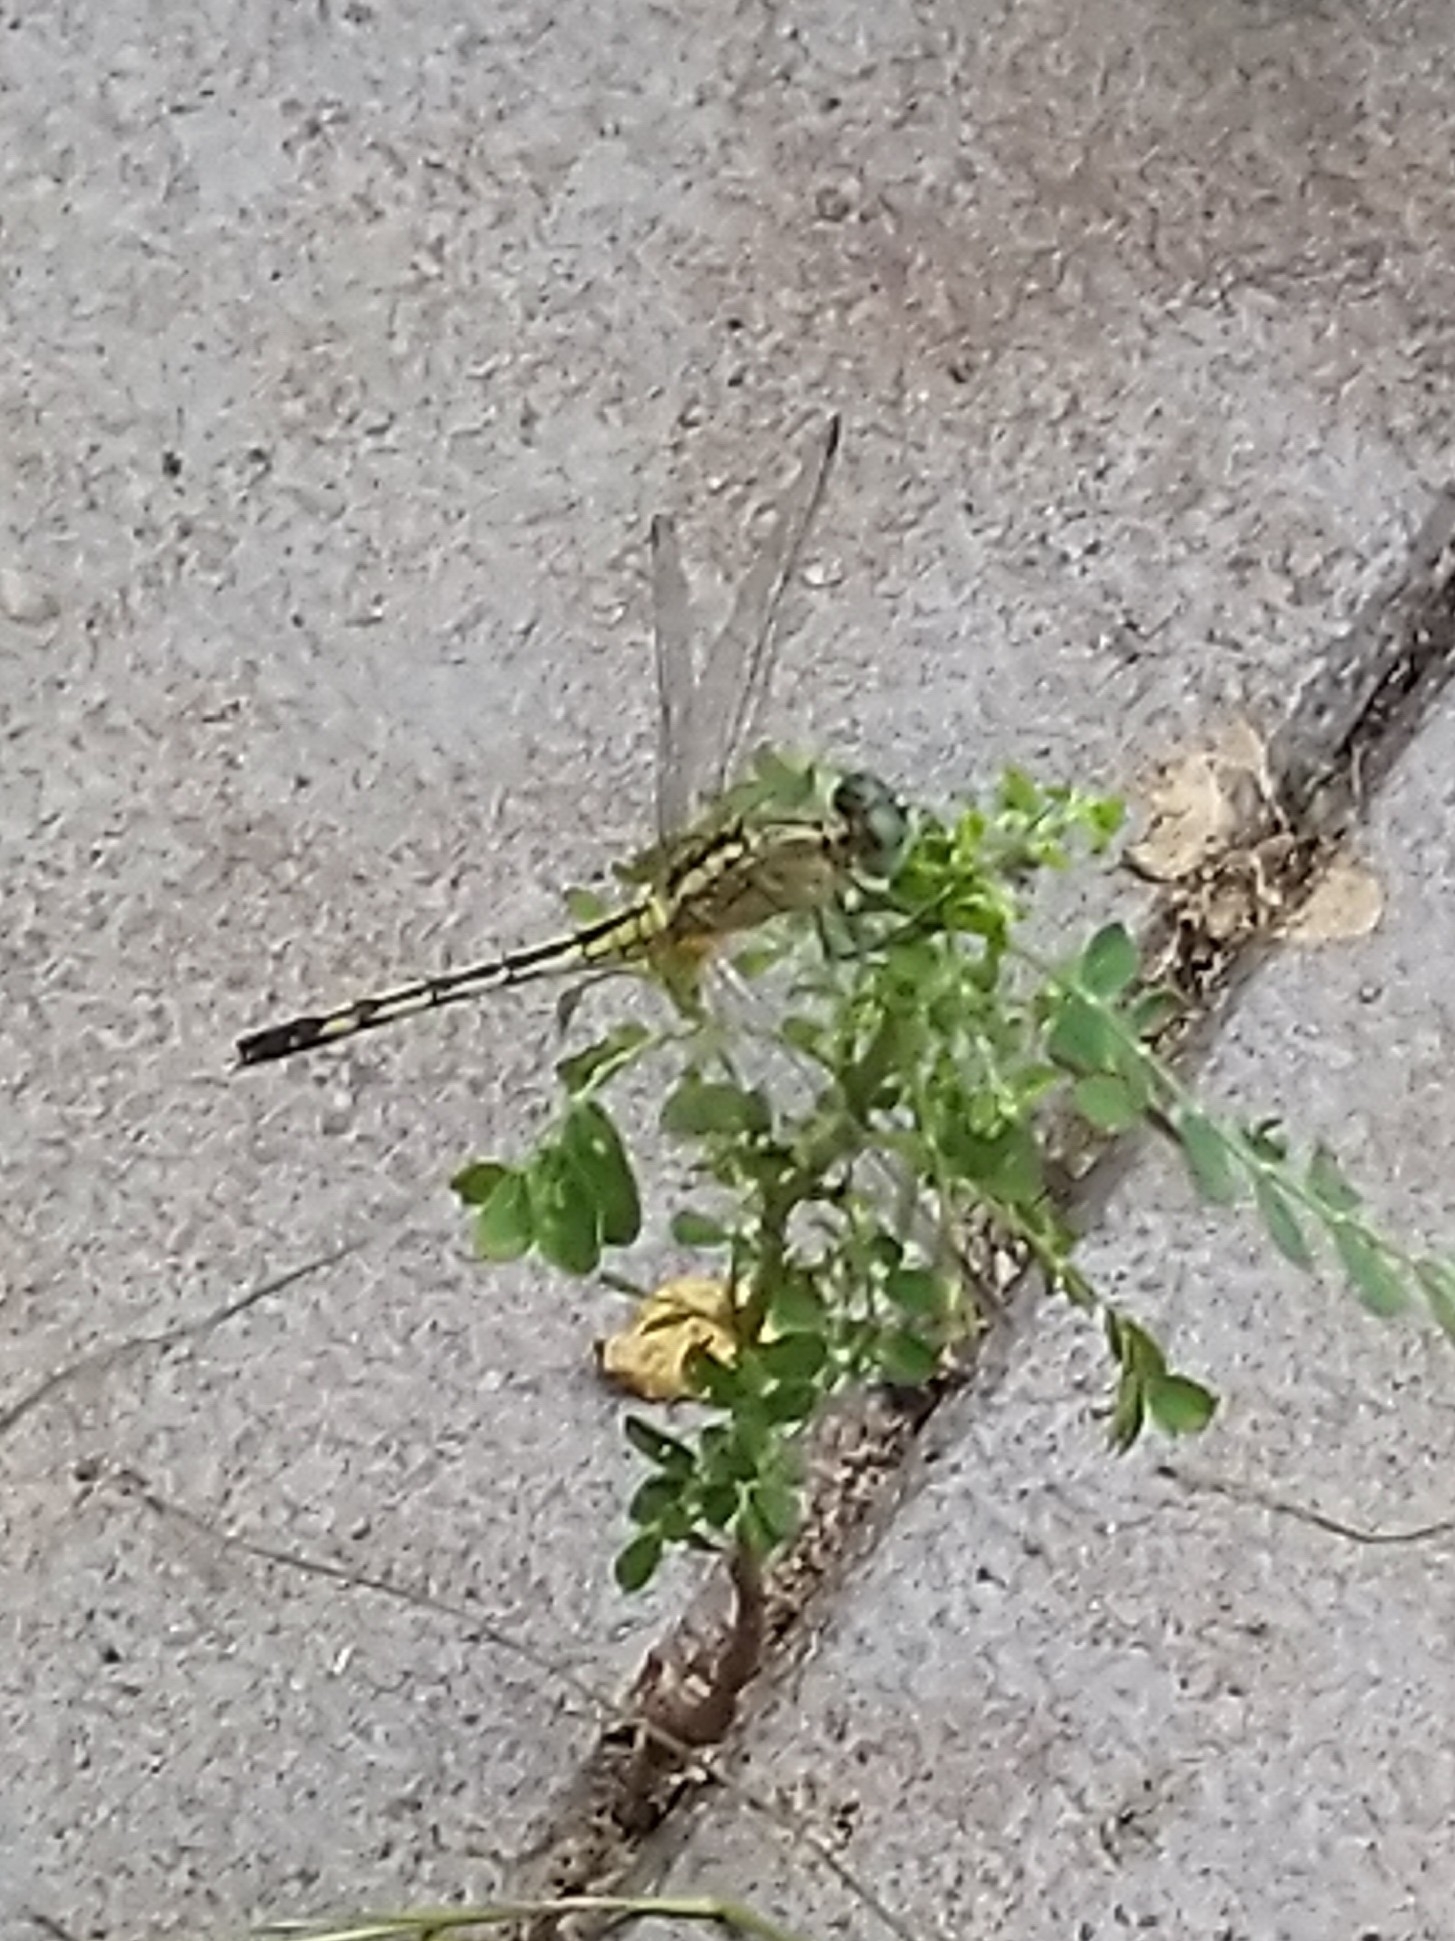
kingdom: Animalia
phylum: Arthropoda
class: Insecta
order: Odonata
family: Libellulidae
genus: Diplacodes
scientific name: Diplacodes trivialis
